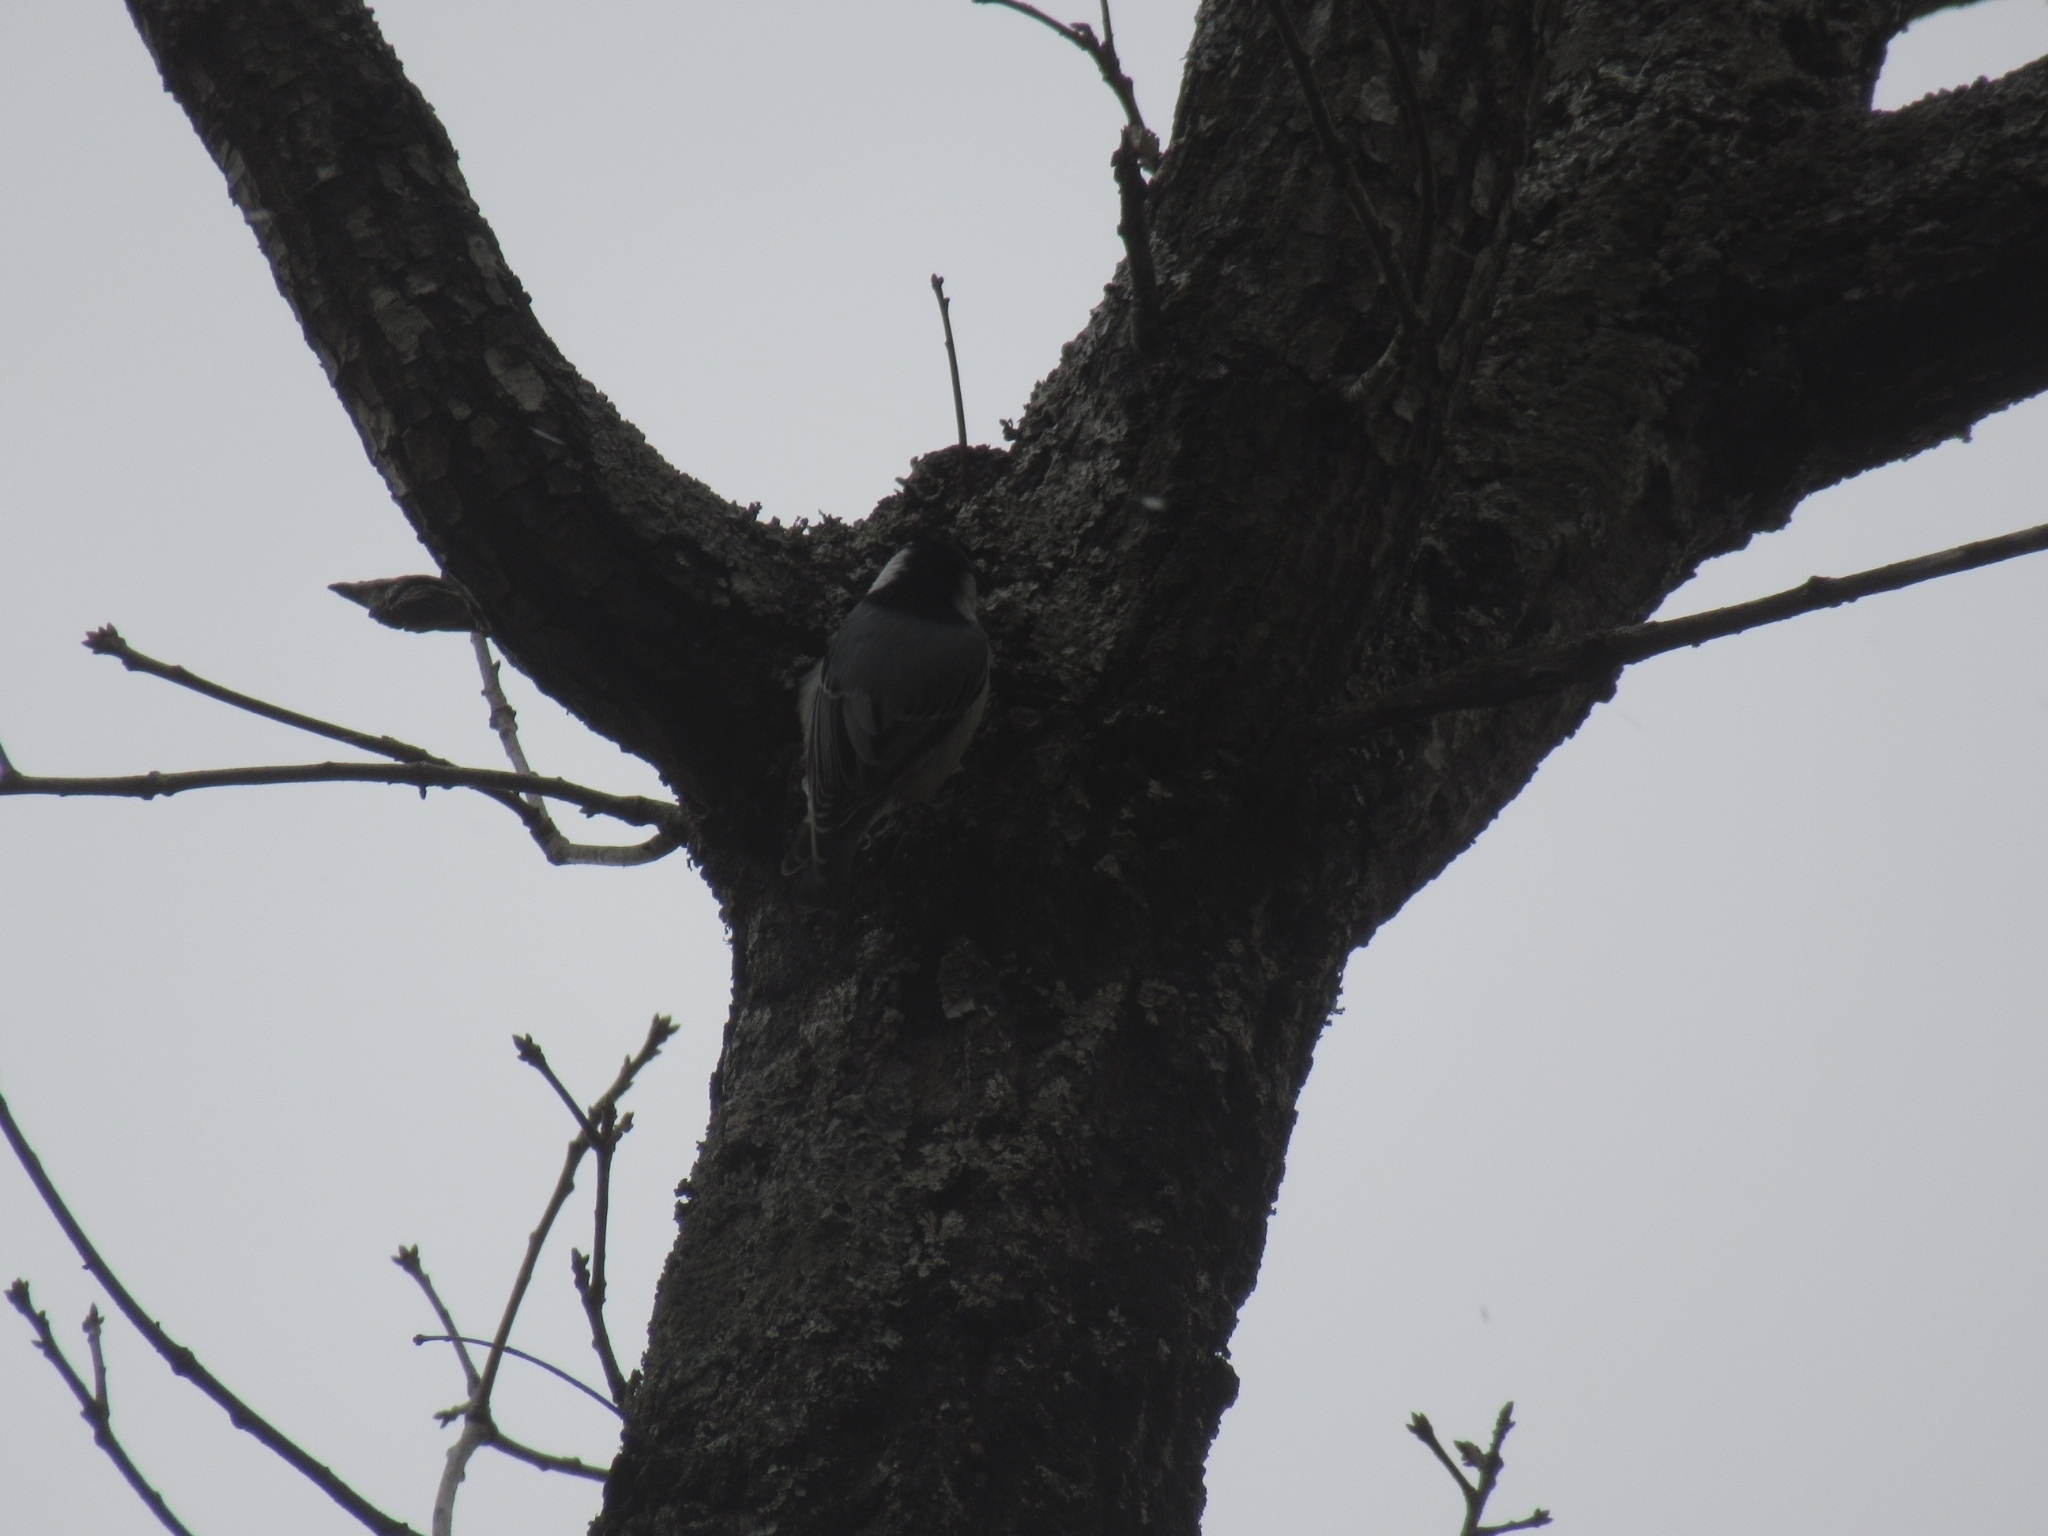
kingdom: Animalia
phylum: Chordata
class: Aves
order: Passeriformes
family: Sittidae
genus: Sitta
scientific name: Sitta carolinensis
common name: White-breasted nuthatch
